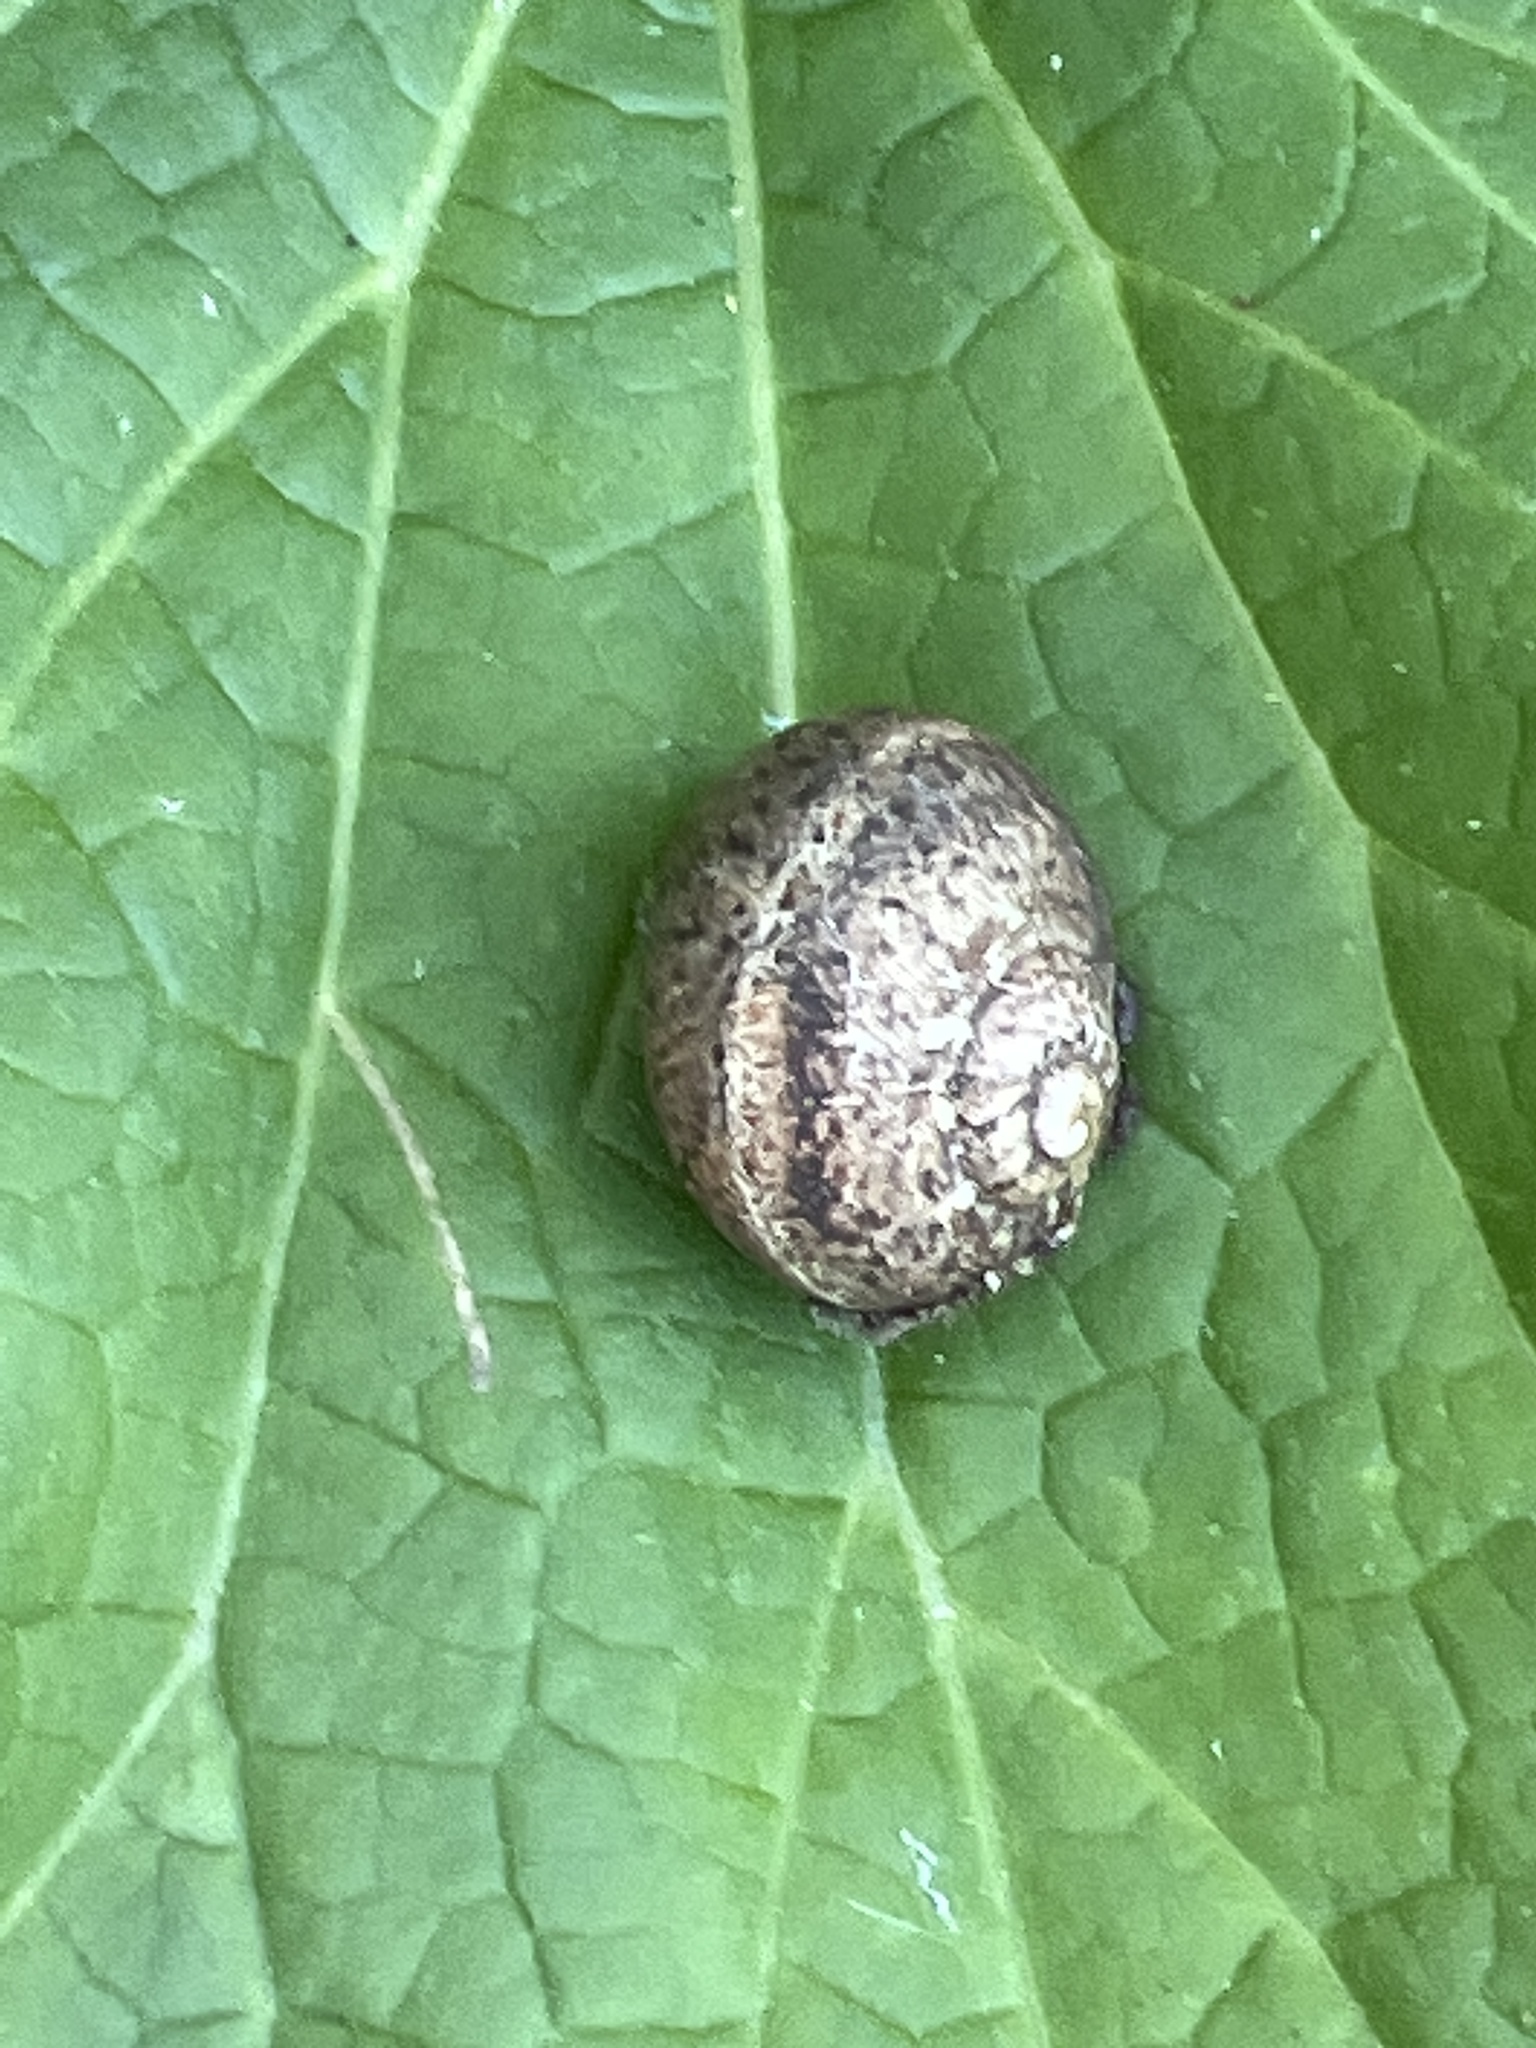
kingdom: Animalia
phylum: Mollusca
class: Gastropoda
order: Stylommatophora
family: Helicidae
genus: Cornu
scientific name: Cornu aspersum
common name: Brown garden snail
